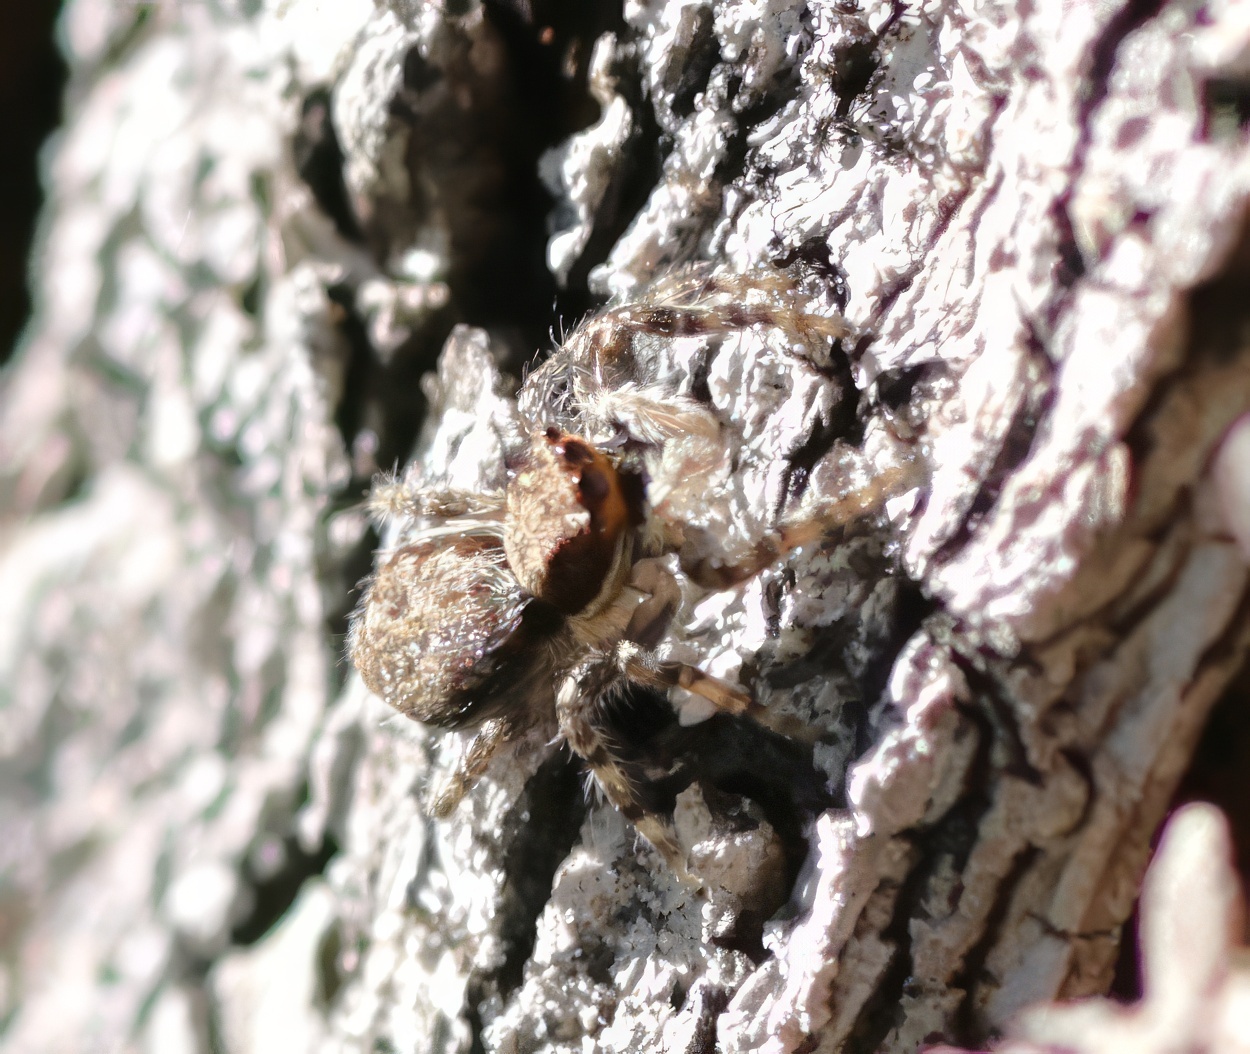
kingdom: Animalia
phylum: Arthropoda
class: Arachnida
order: Araneae
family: Salticidae
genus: Menemerus
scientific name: Menemerus bivittatus
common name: Gray wall jumper
